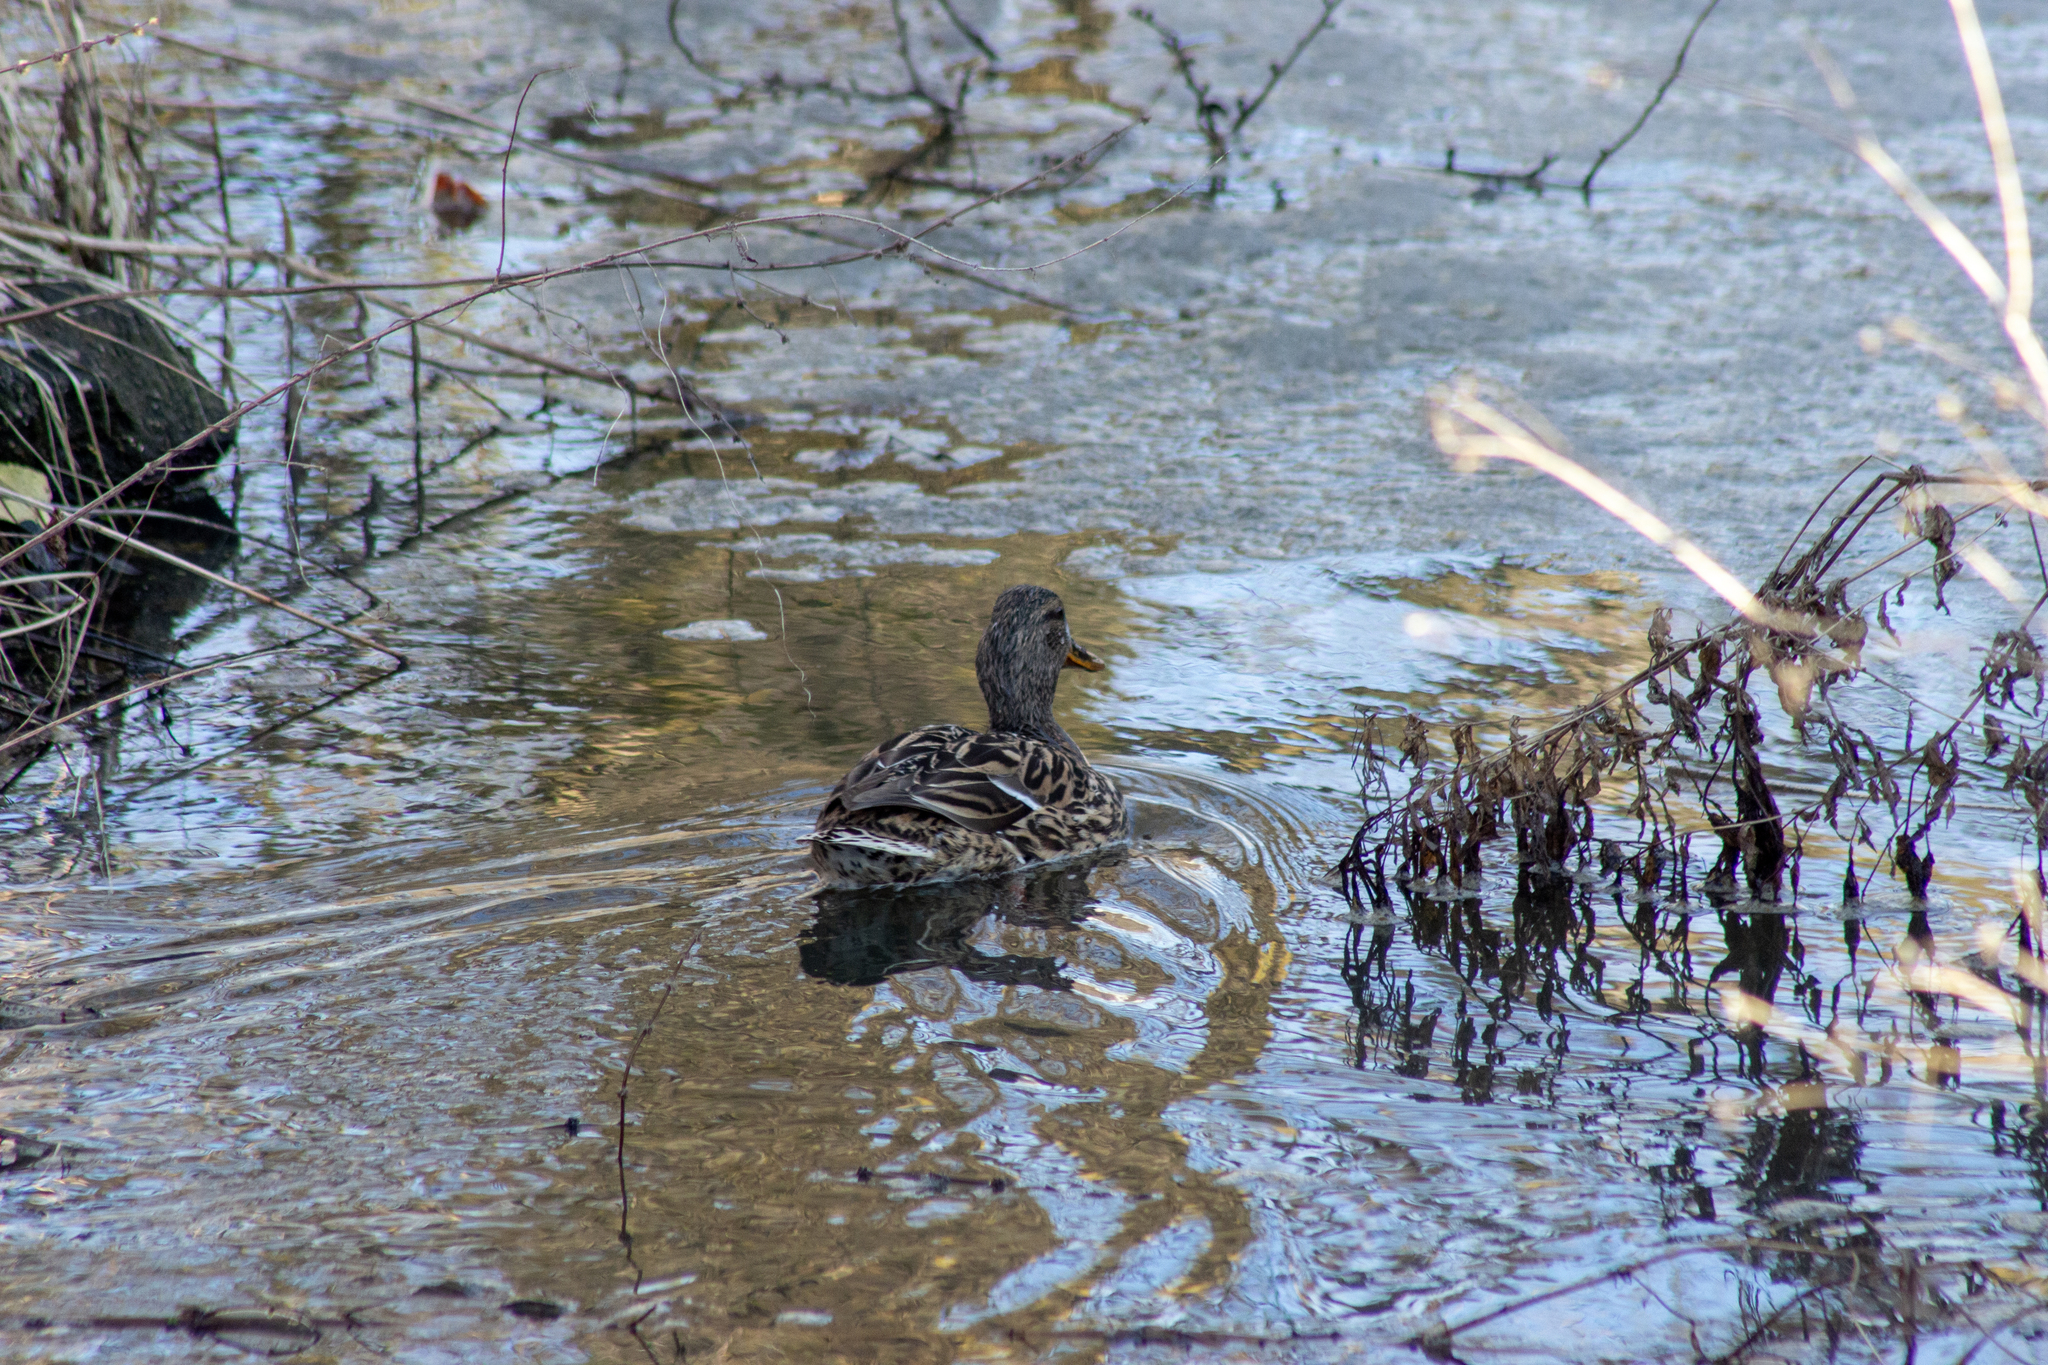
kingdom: Animalia
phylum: Chordata
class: Aves
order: Anseriformes
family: Anatidae
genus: Anas
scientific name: Anas platyrhynchos
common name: Mallard
